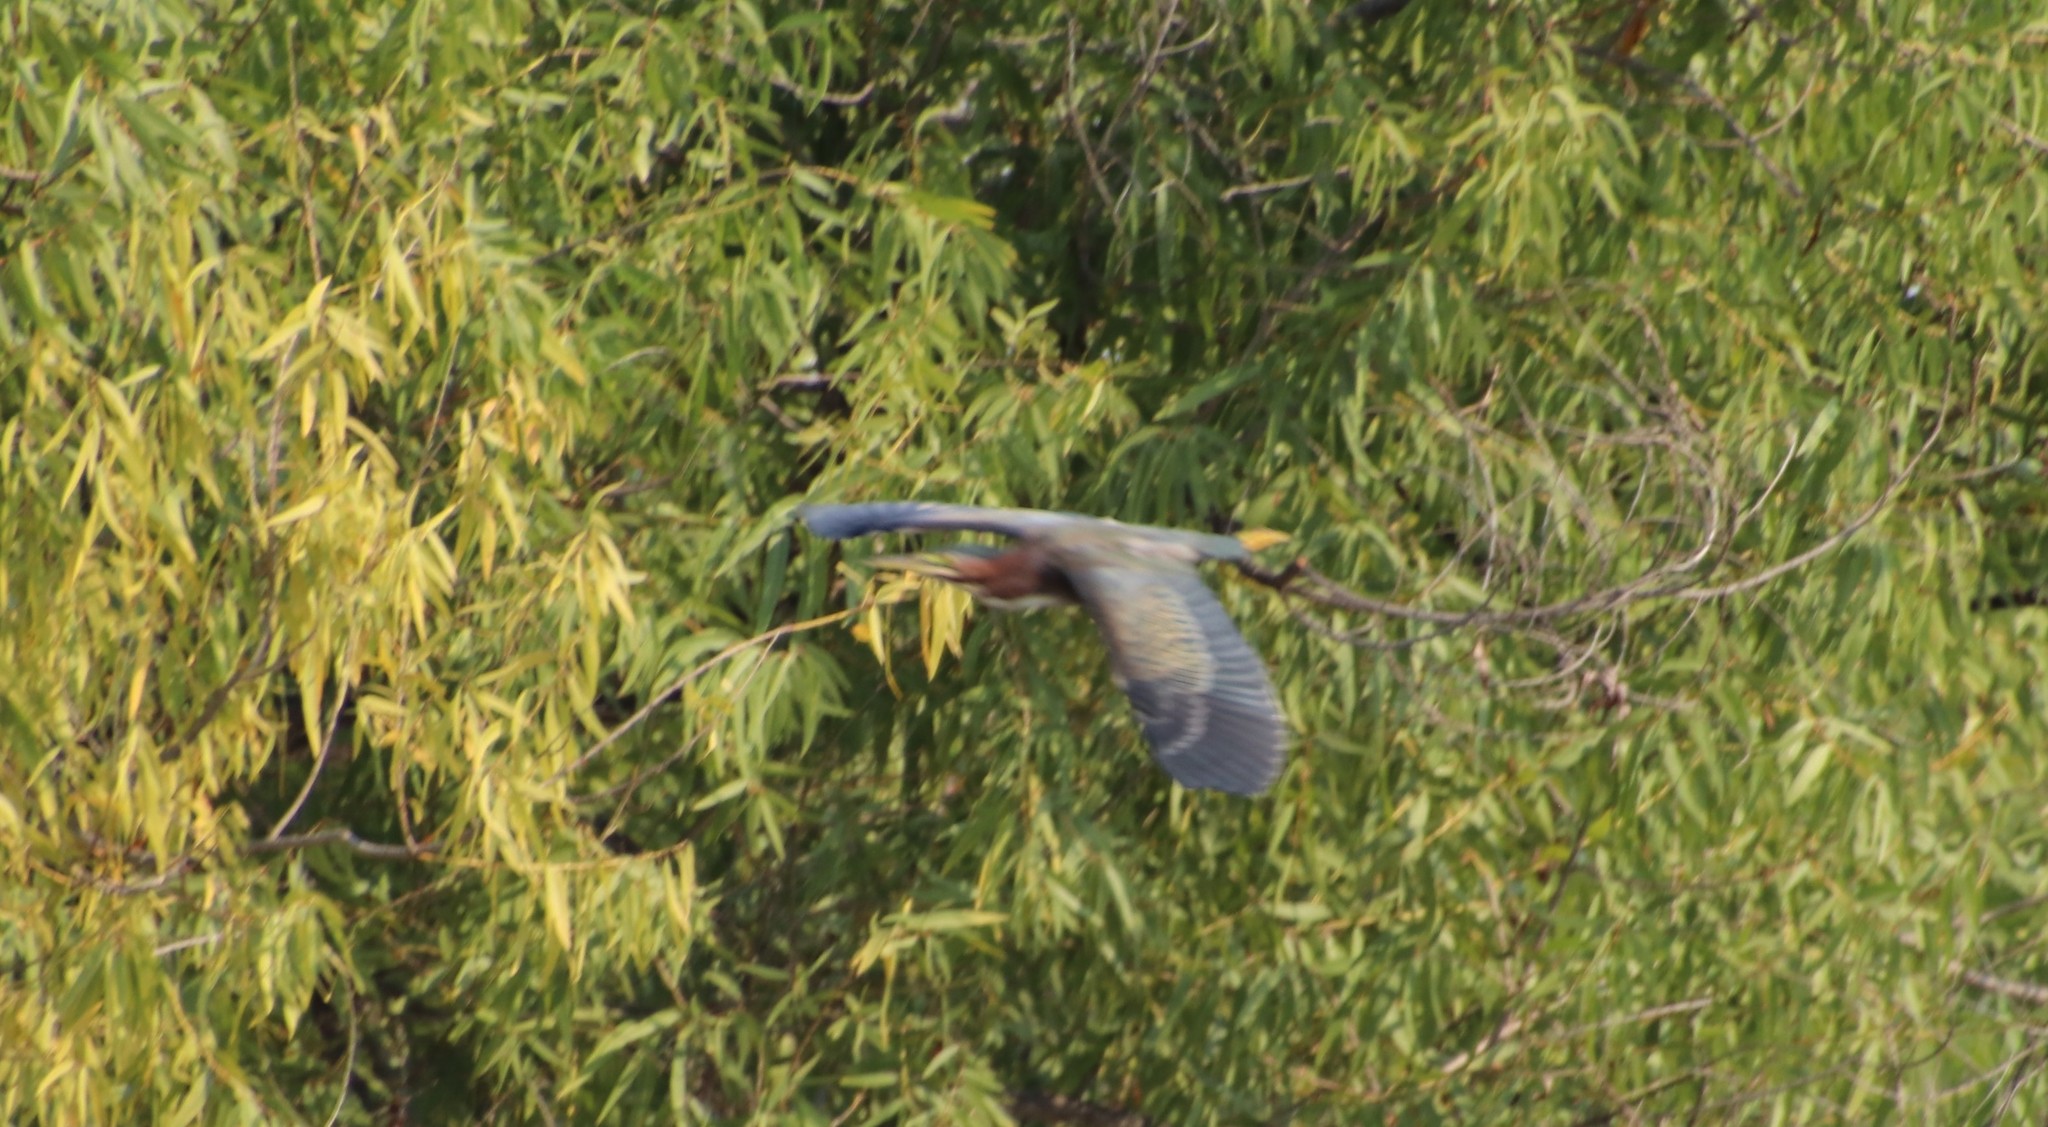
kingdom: Animalia
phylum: Chordata
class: Aves
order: Pelecaniformes
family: Ardeidae
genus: Butorides
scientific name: Butorides virescens
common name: Green heron
